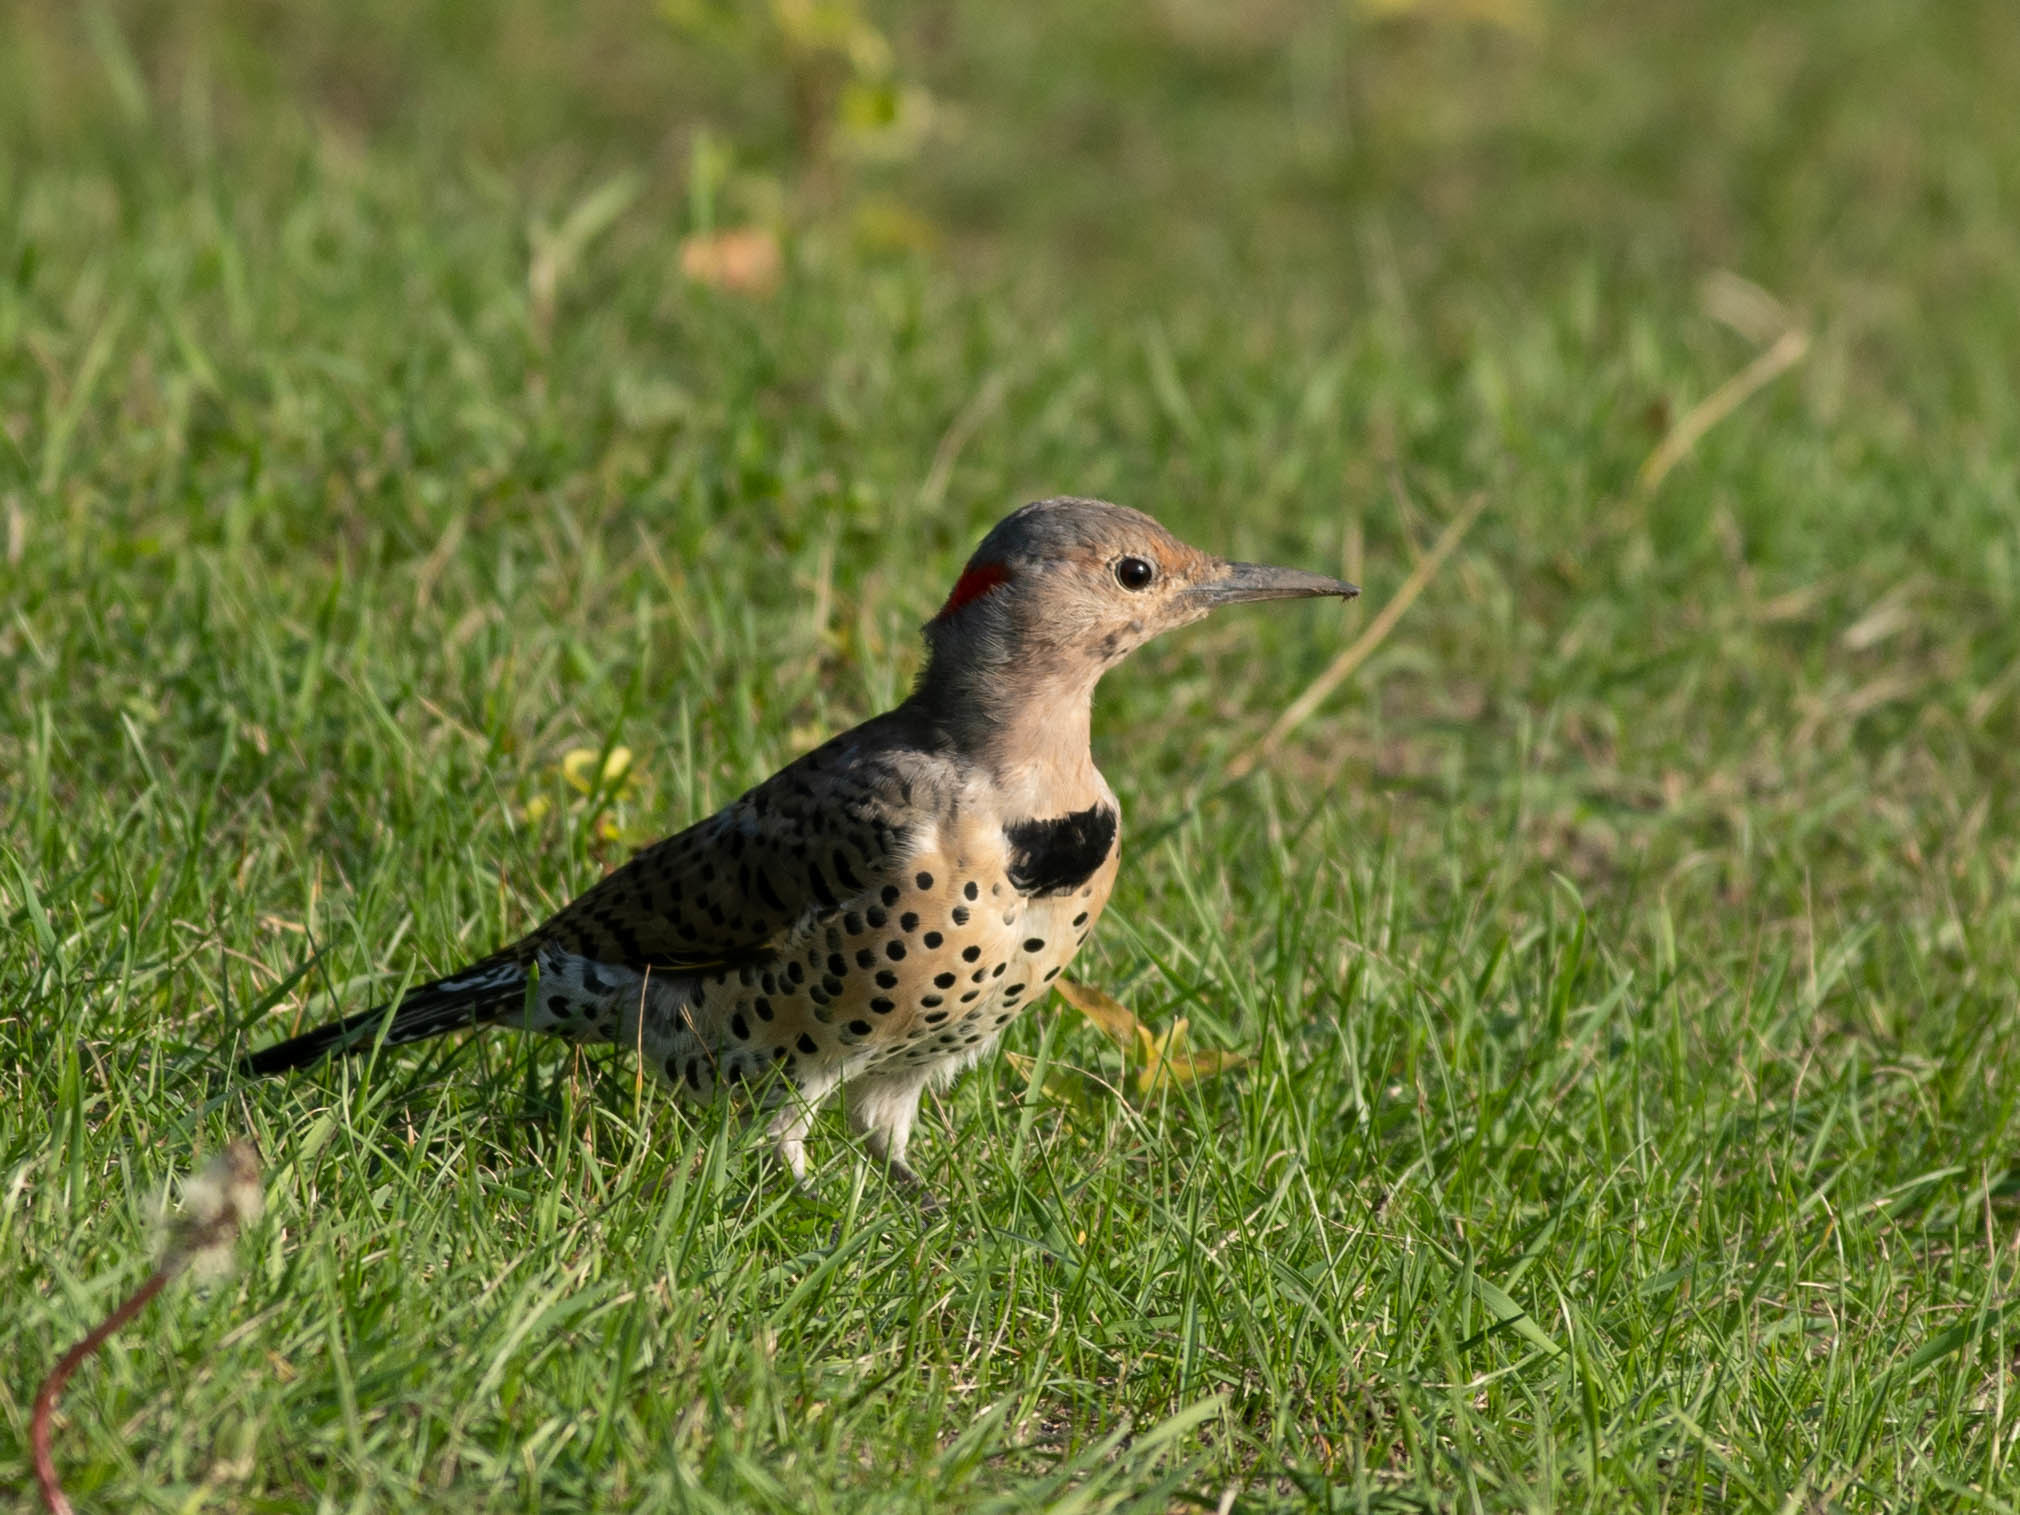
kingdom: Animalia
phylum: Chordata
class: Aves
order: Piciformes
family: Picidae
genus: Colaptes
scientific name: Colaptes auratus
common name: Northern flicker
